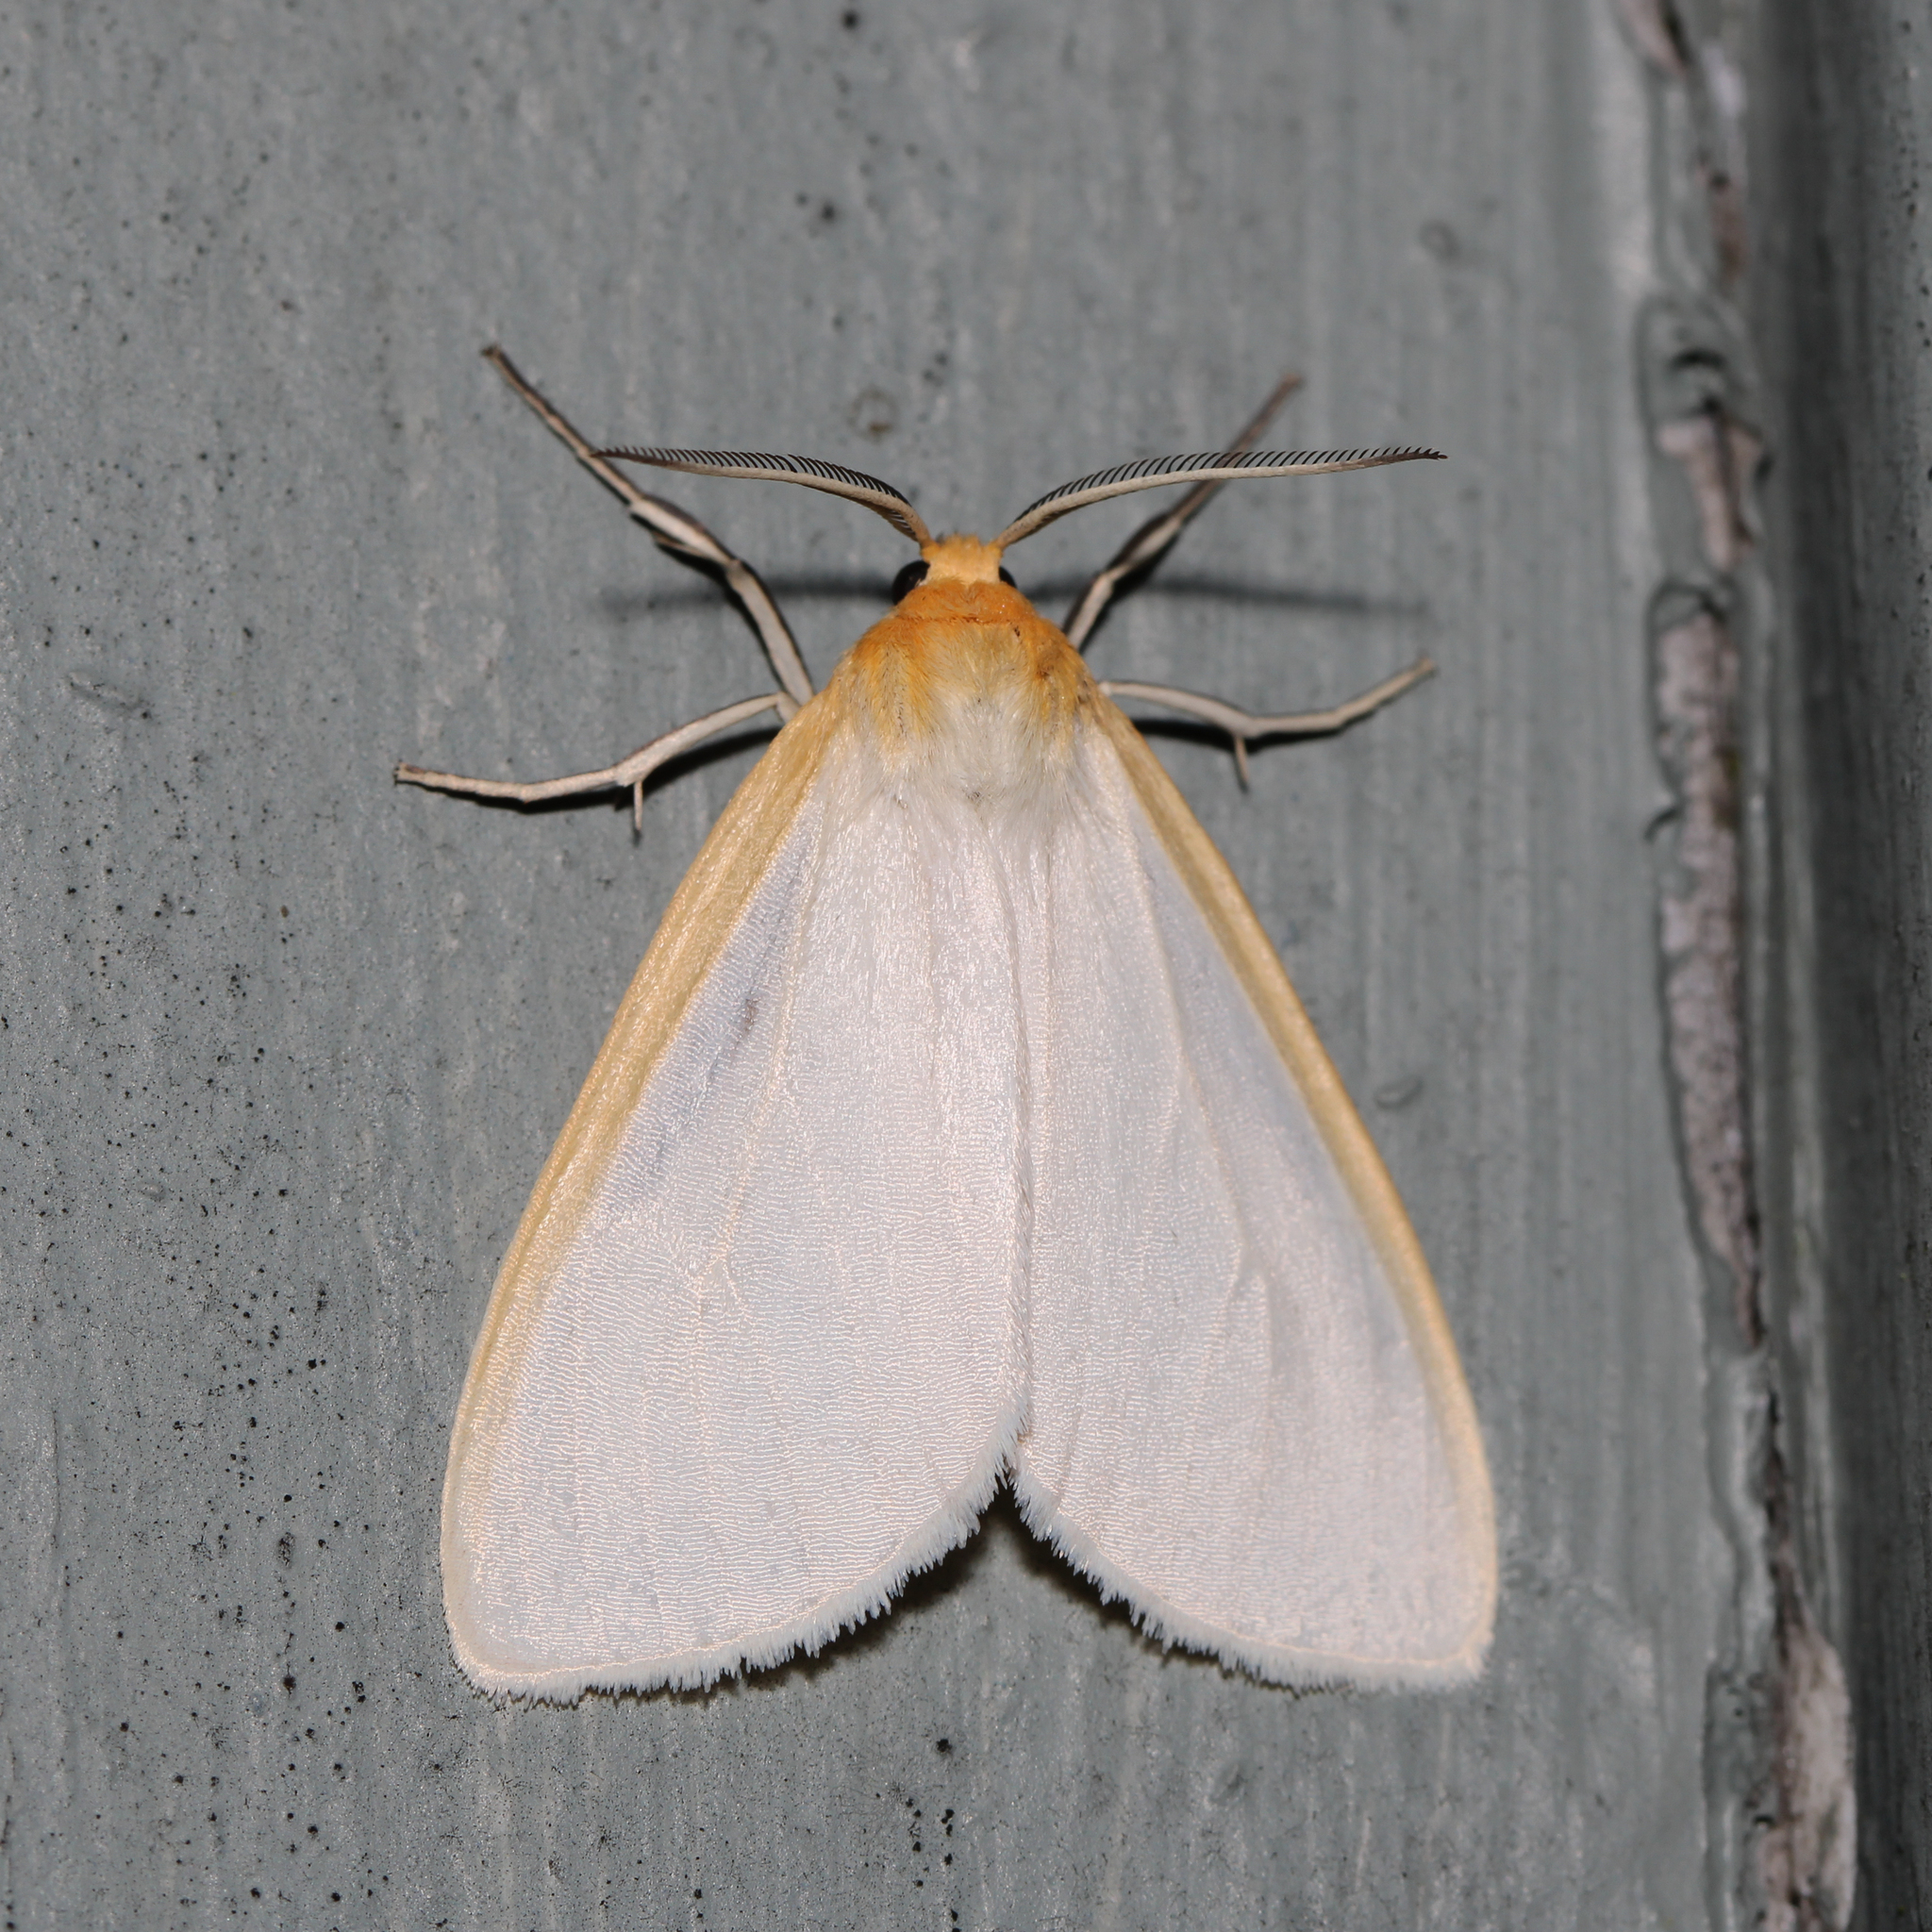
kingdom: Animalia
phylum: Arthropoda
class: Insecta
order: Lepidoptera
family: Erebidae
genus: Cycnia
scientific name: Cycnia tenera
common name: Delicate cycnia moth
